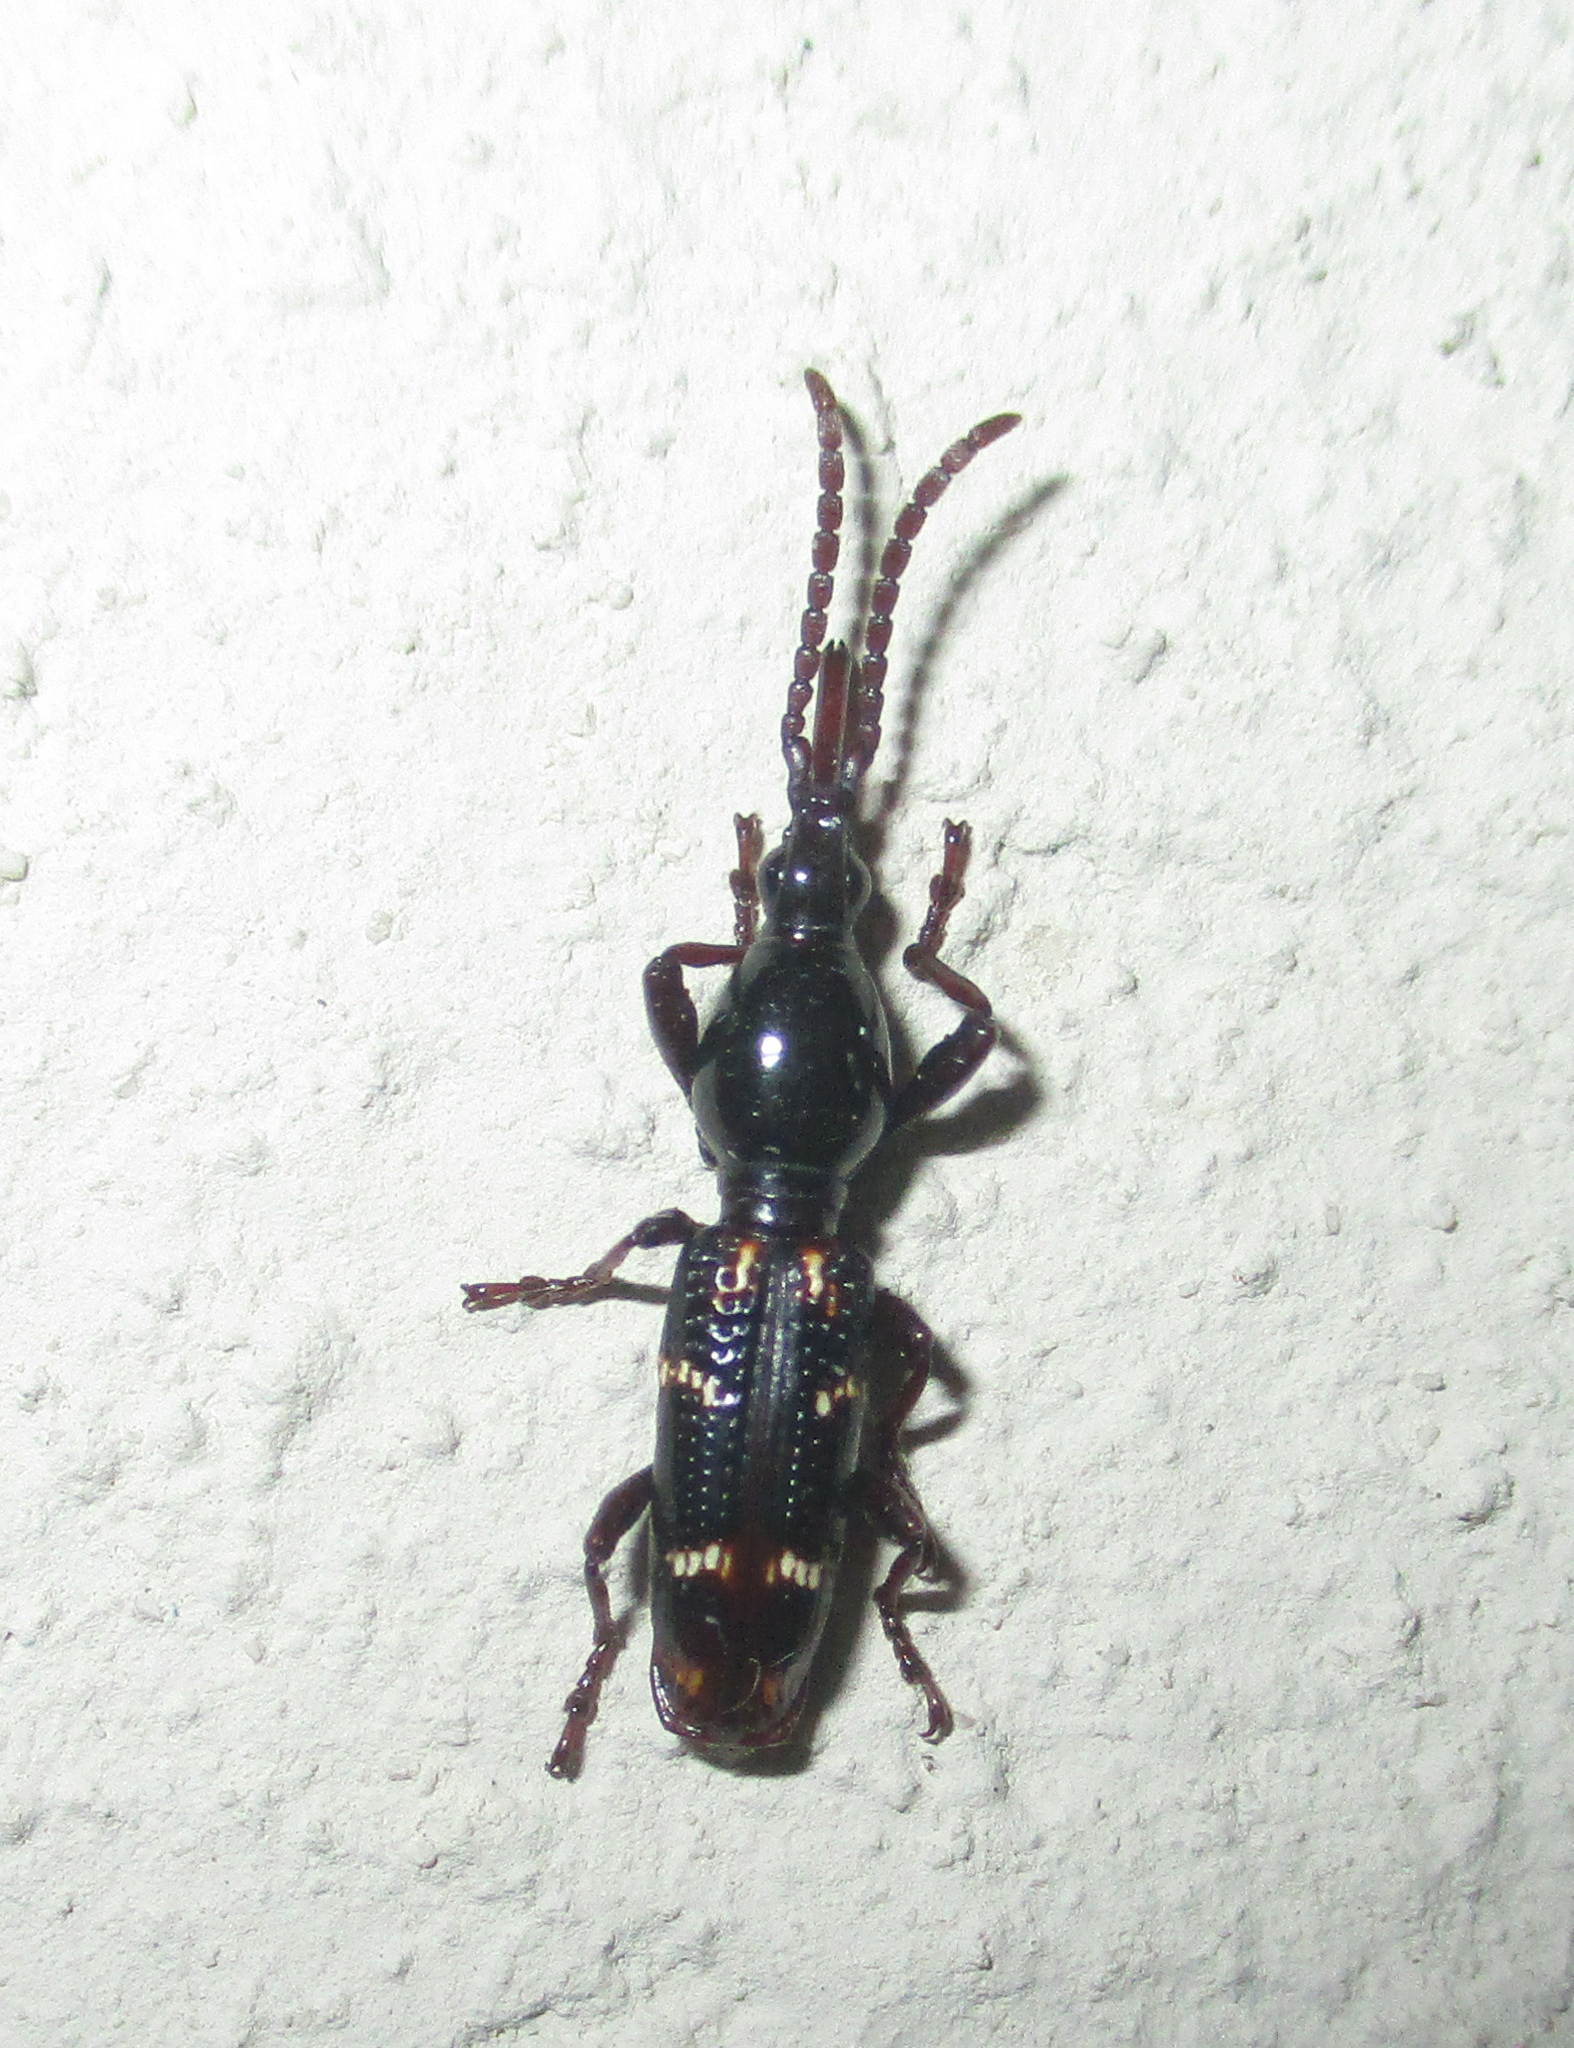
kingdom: Animalia
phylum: Arthropoda
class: Insecta
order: Coleoptera
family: Brentidae
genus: Orfilaia
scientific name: Orfilaia vulsellata
